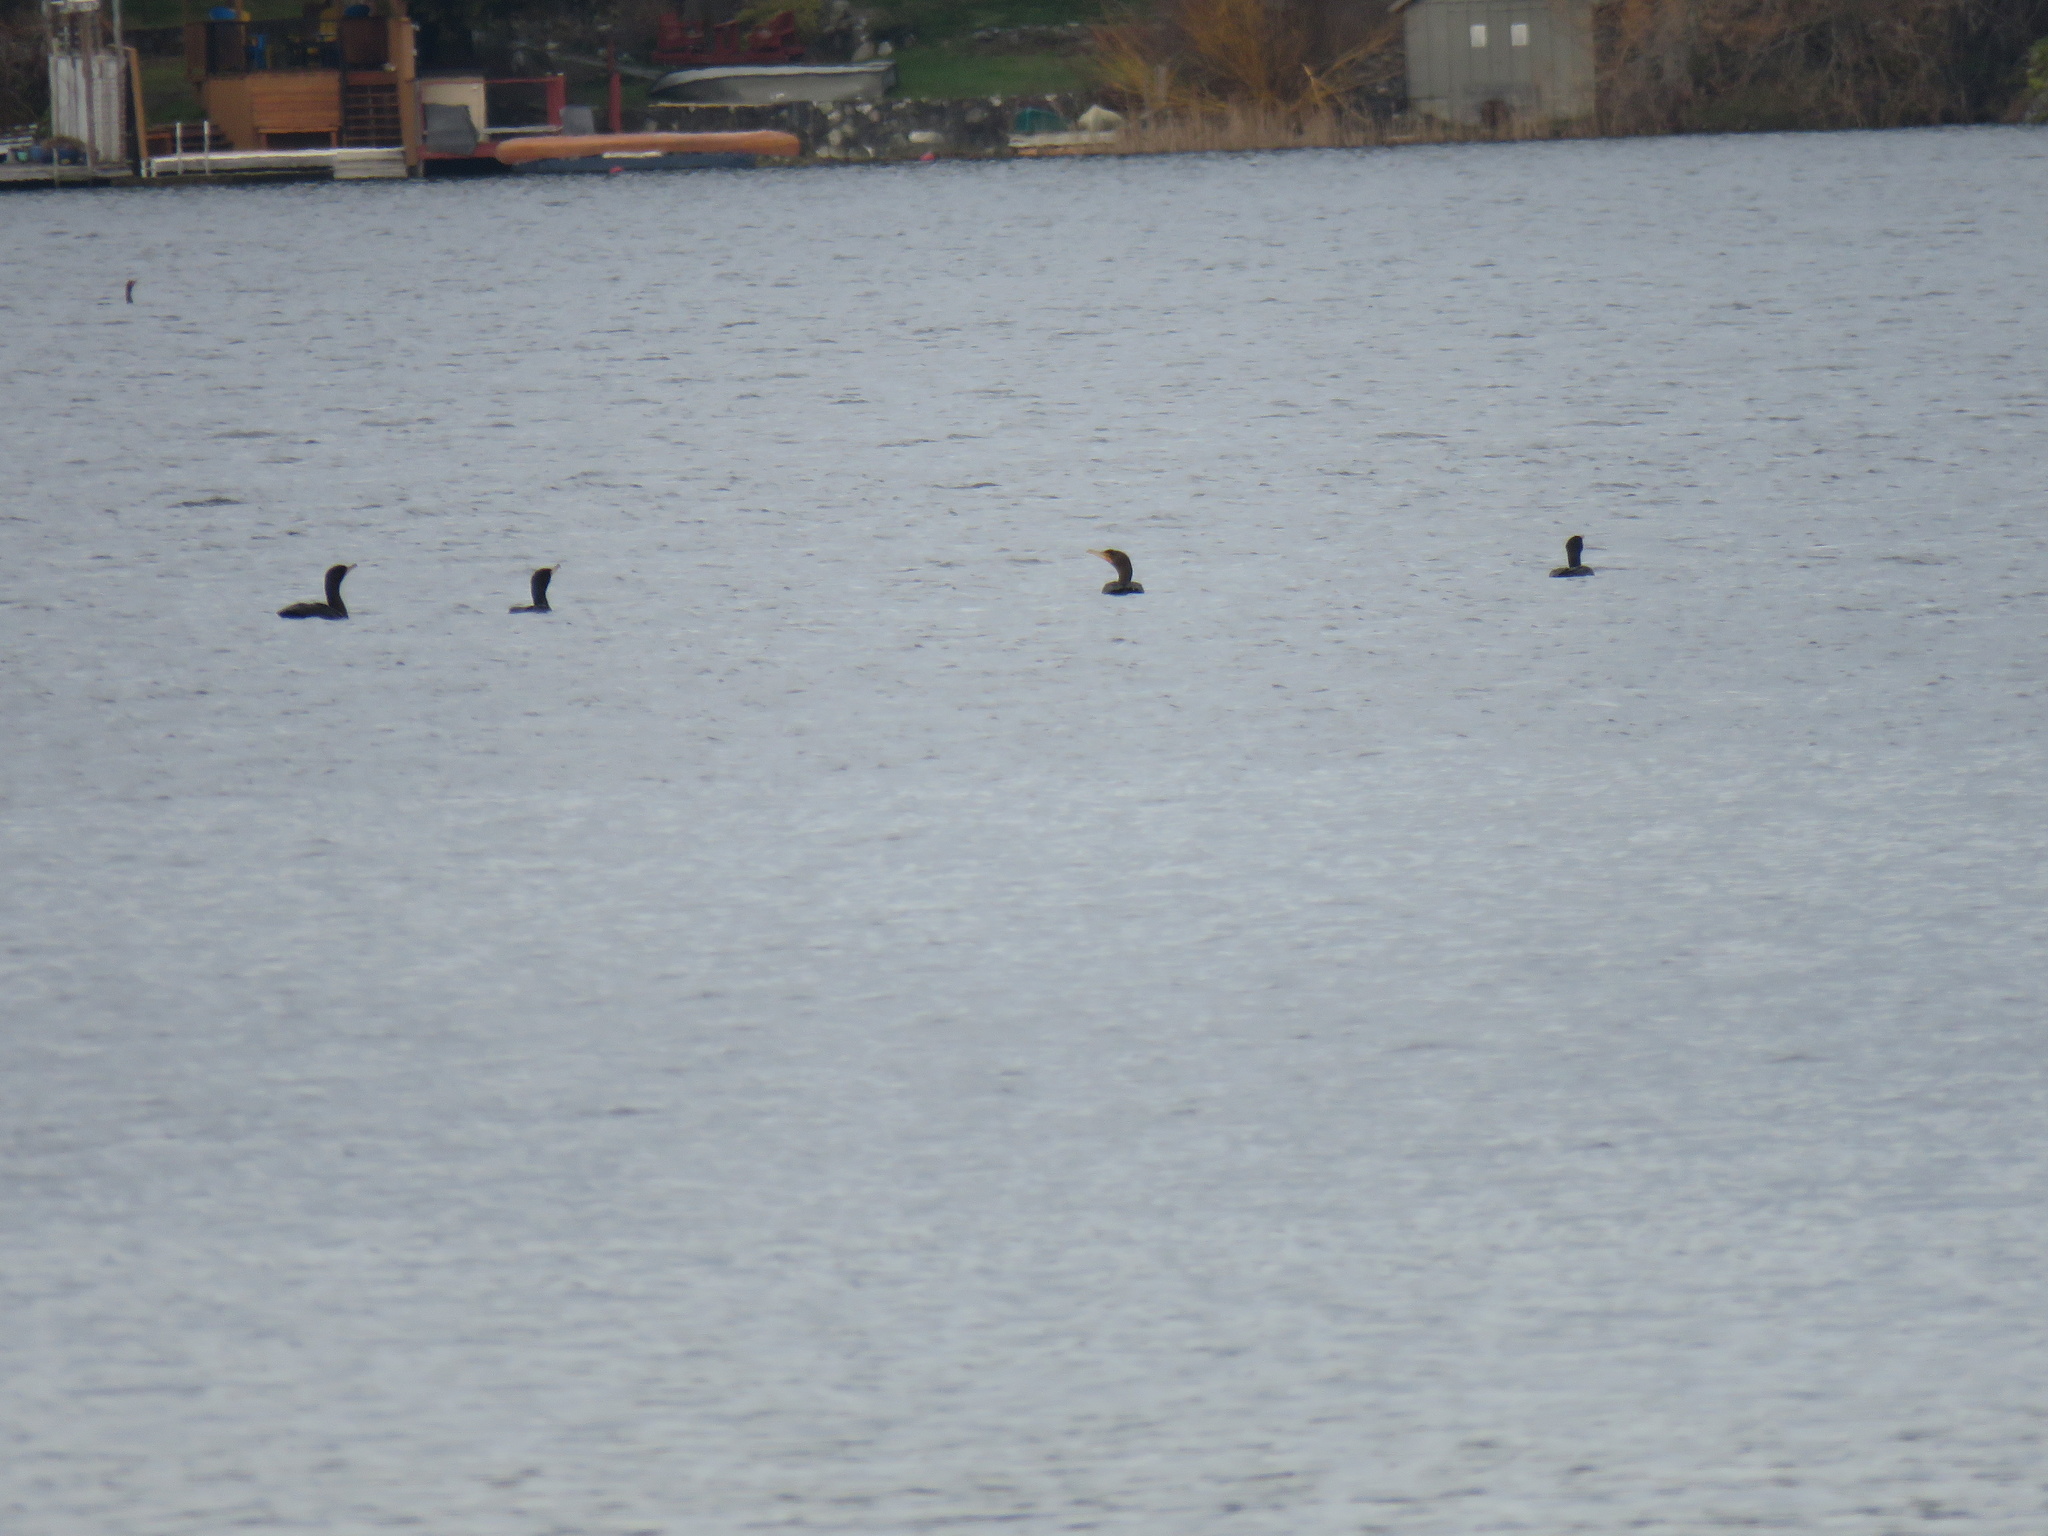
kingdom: Animalia
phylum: Chordata
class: Aves
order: Suliformes
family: Phalacrocoracidae
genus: Phalacrocorax
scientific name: Phalacrocorax auritus
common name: Double-crested cormorant
